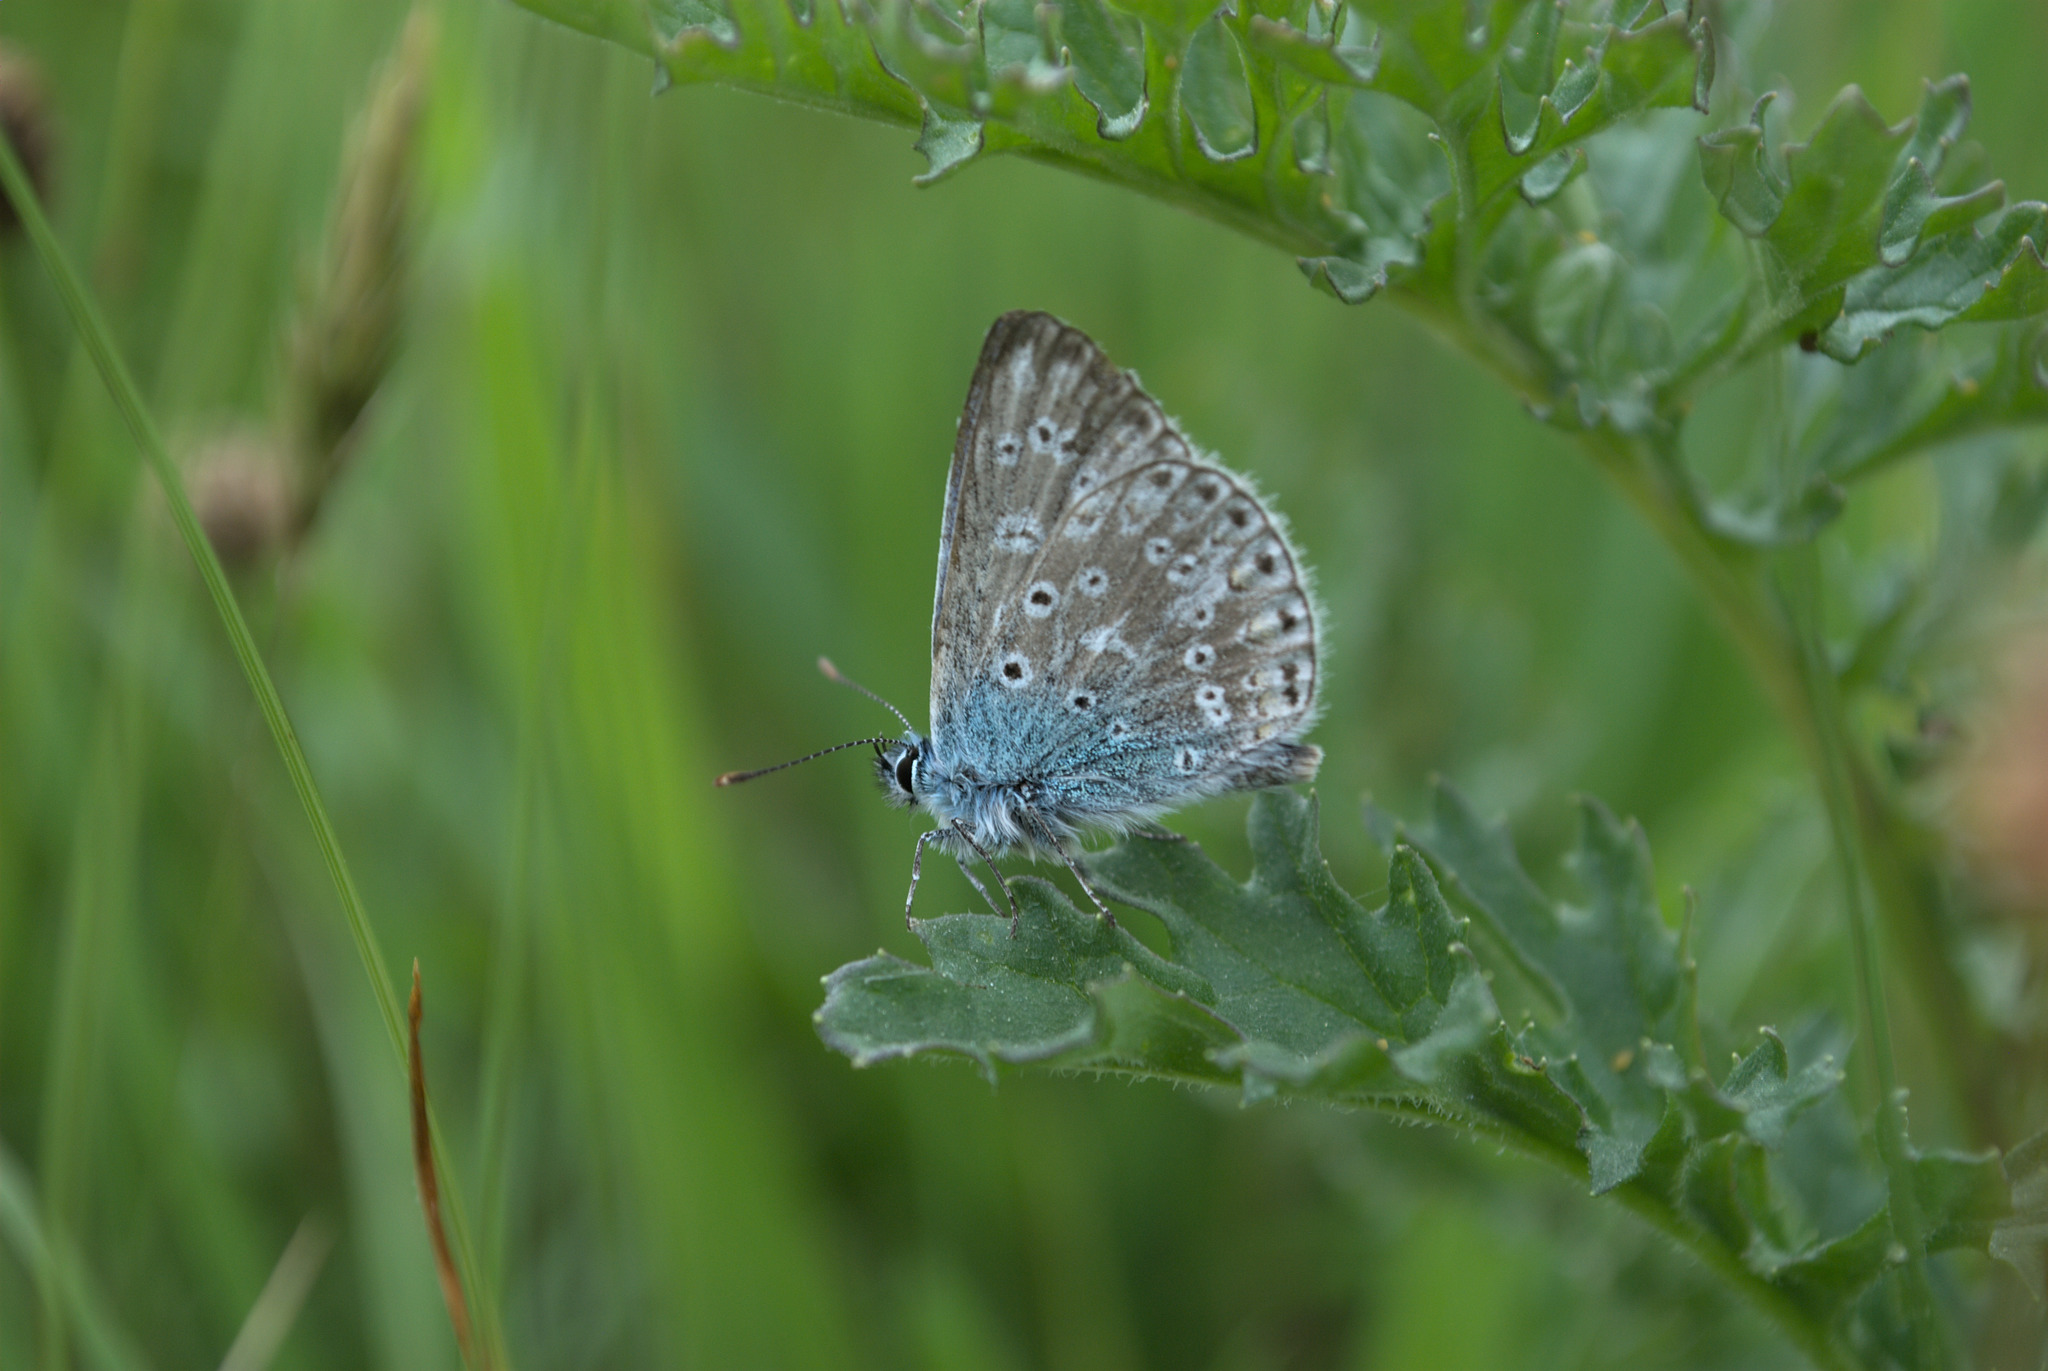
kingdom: Animalia
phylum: Arthropoda
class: Insecta
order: Lepidoptera
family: Lycaenidae
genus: Polyommatus
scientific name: Polyommatus icarus
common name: Common blue
